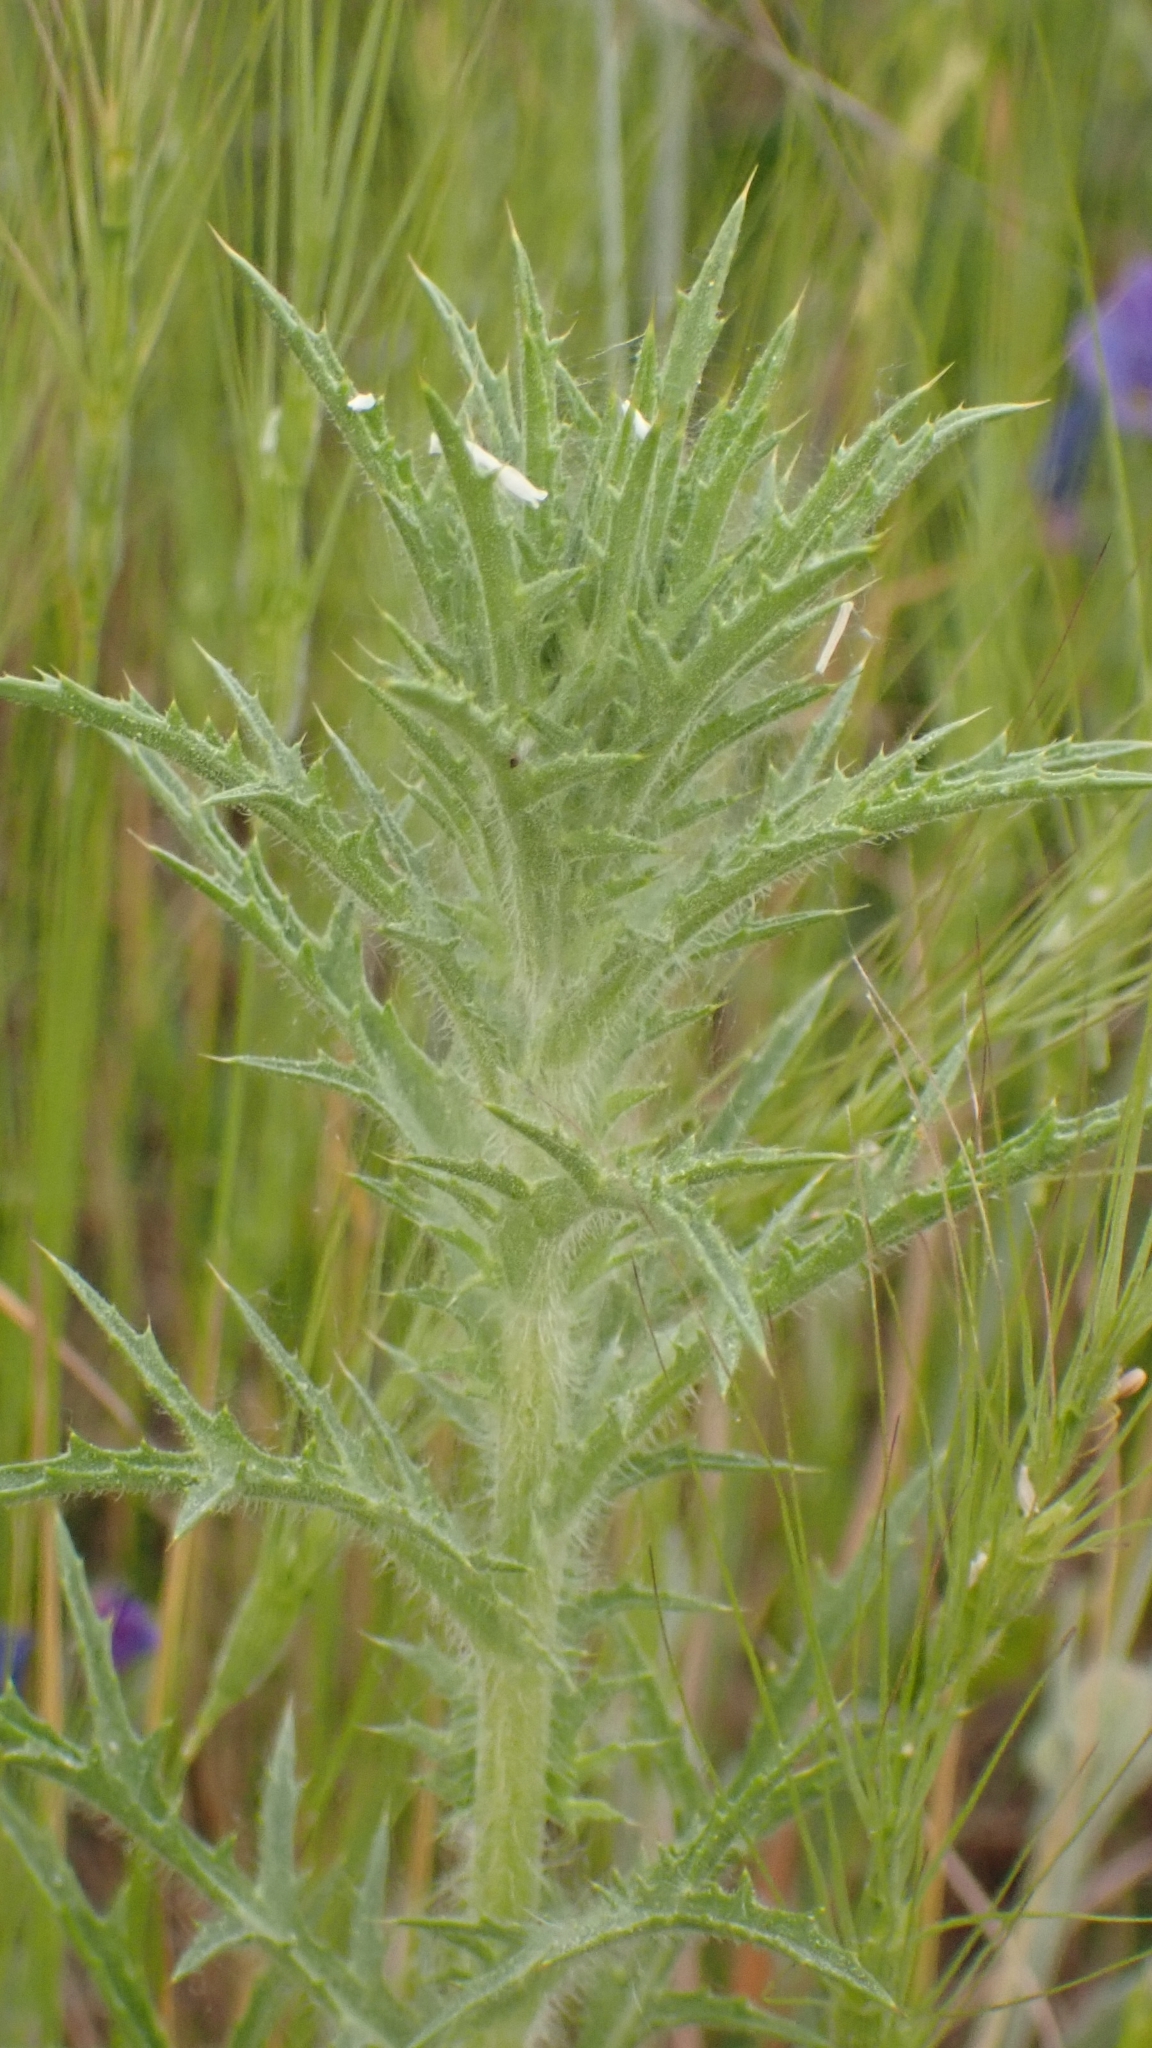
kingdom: Plantae
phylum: Tracheophyta
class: Magnoliopsida
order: Asterales
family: Asteraceae
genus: Carthamus
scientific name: Carthamus lanatus
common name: Downy safflower
